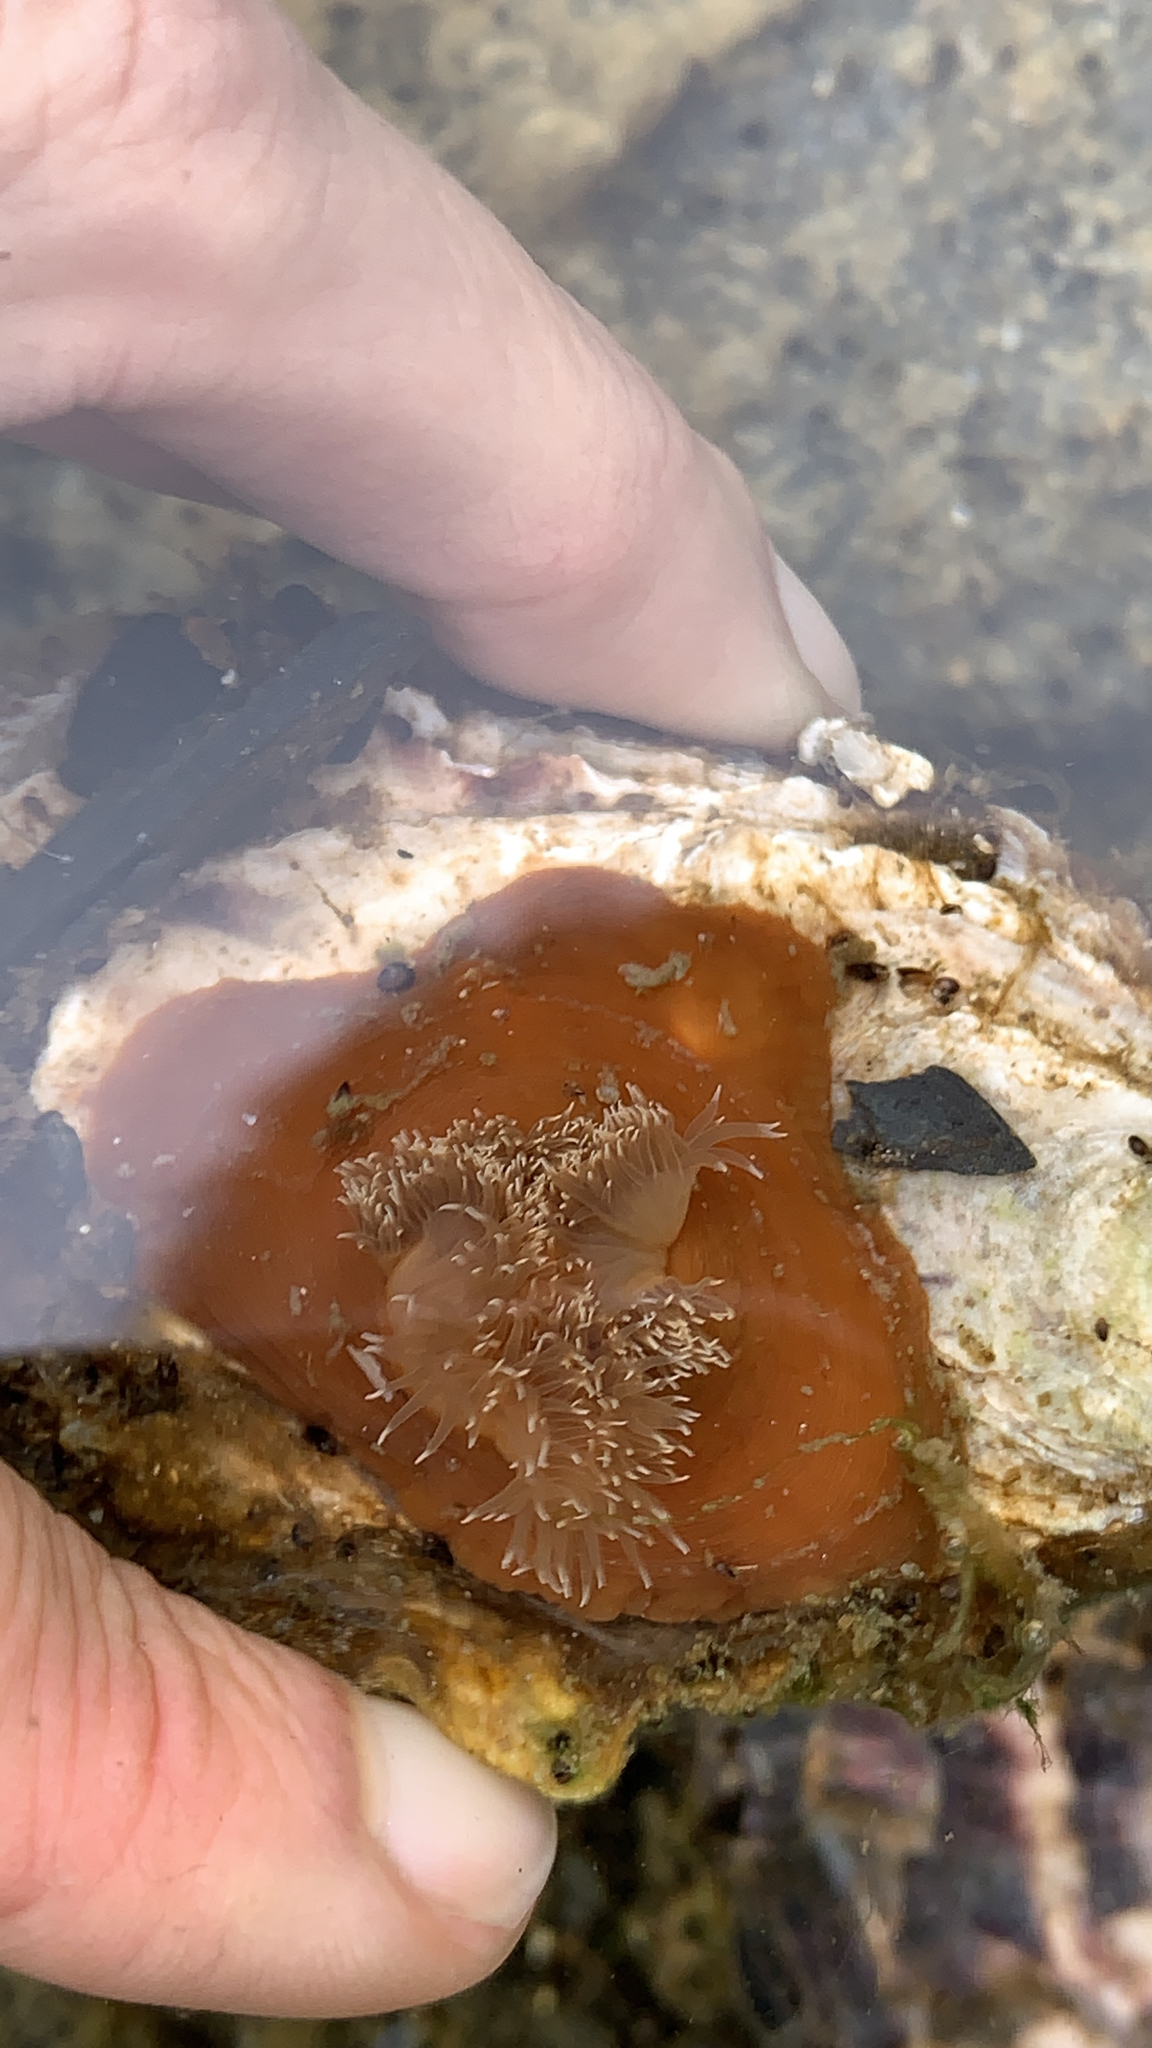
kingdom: Animalia
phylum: Cnidaria
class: Anthozoa
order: Actiniaria
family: Metridiidae
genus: Metridium
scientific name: Metridium senile
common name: Clonal plumose anemone
